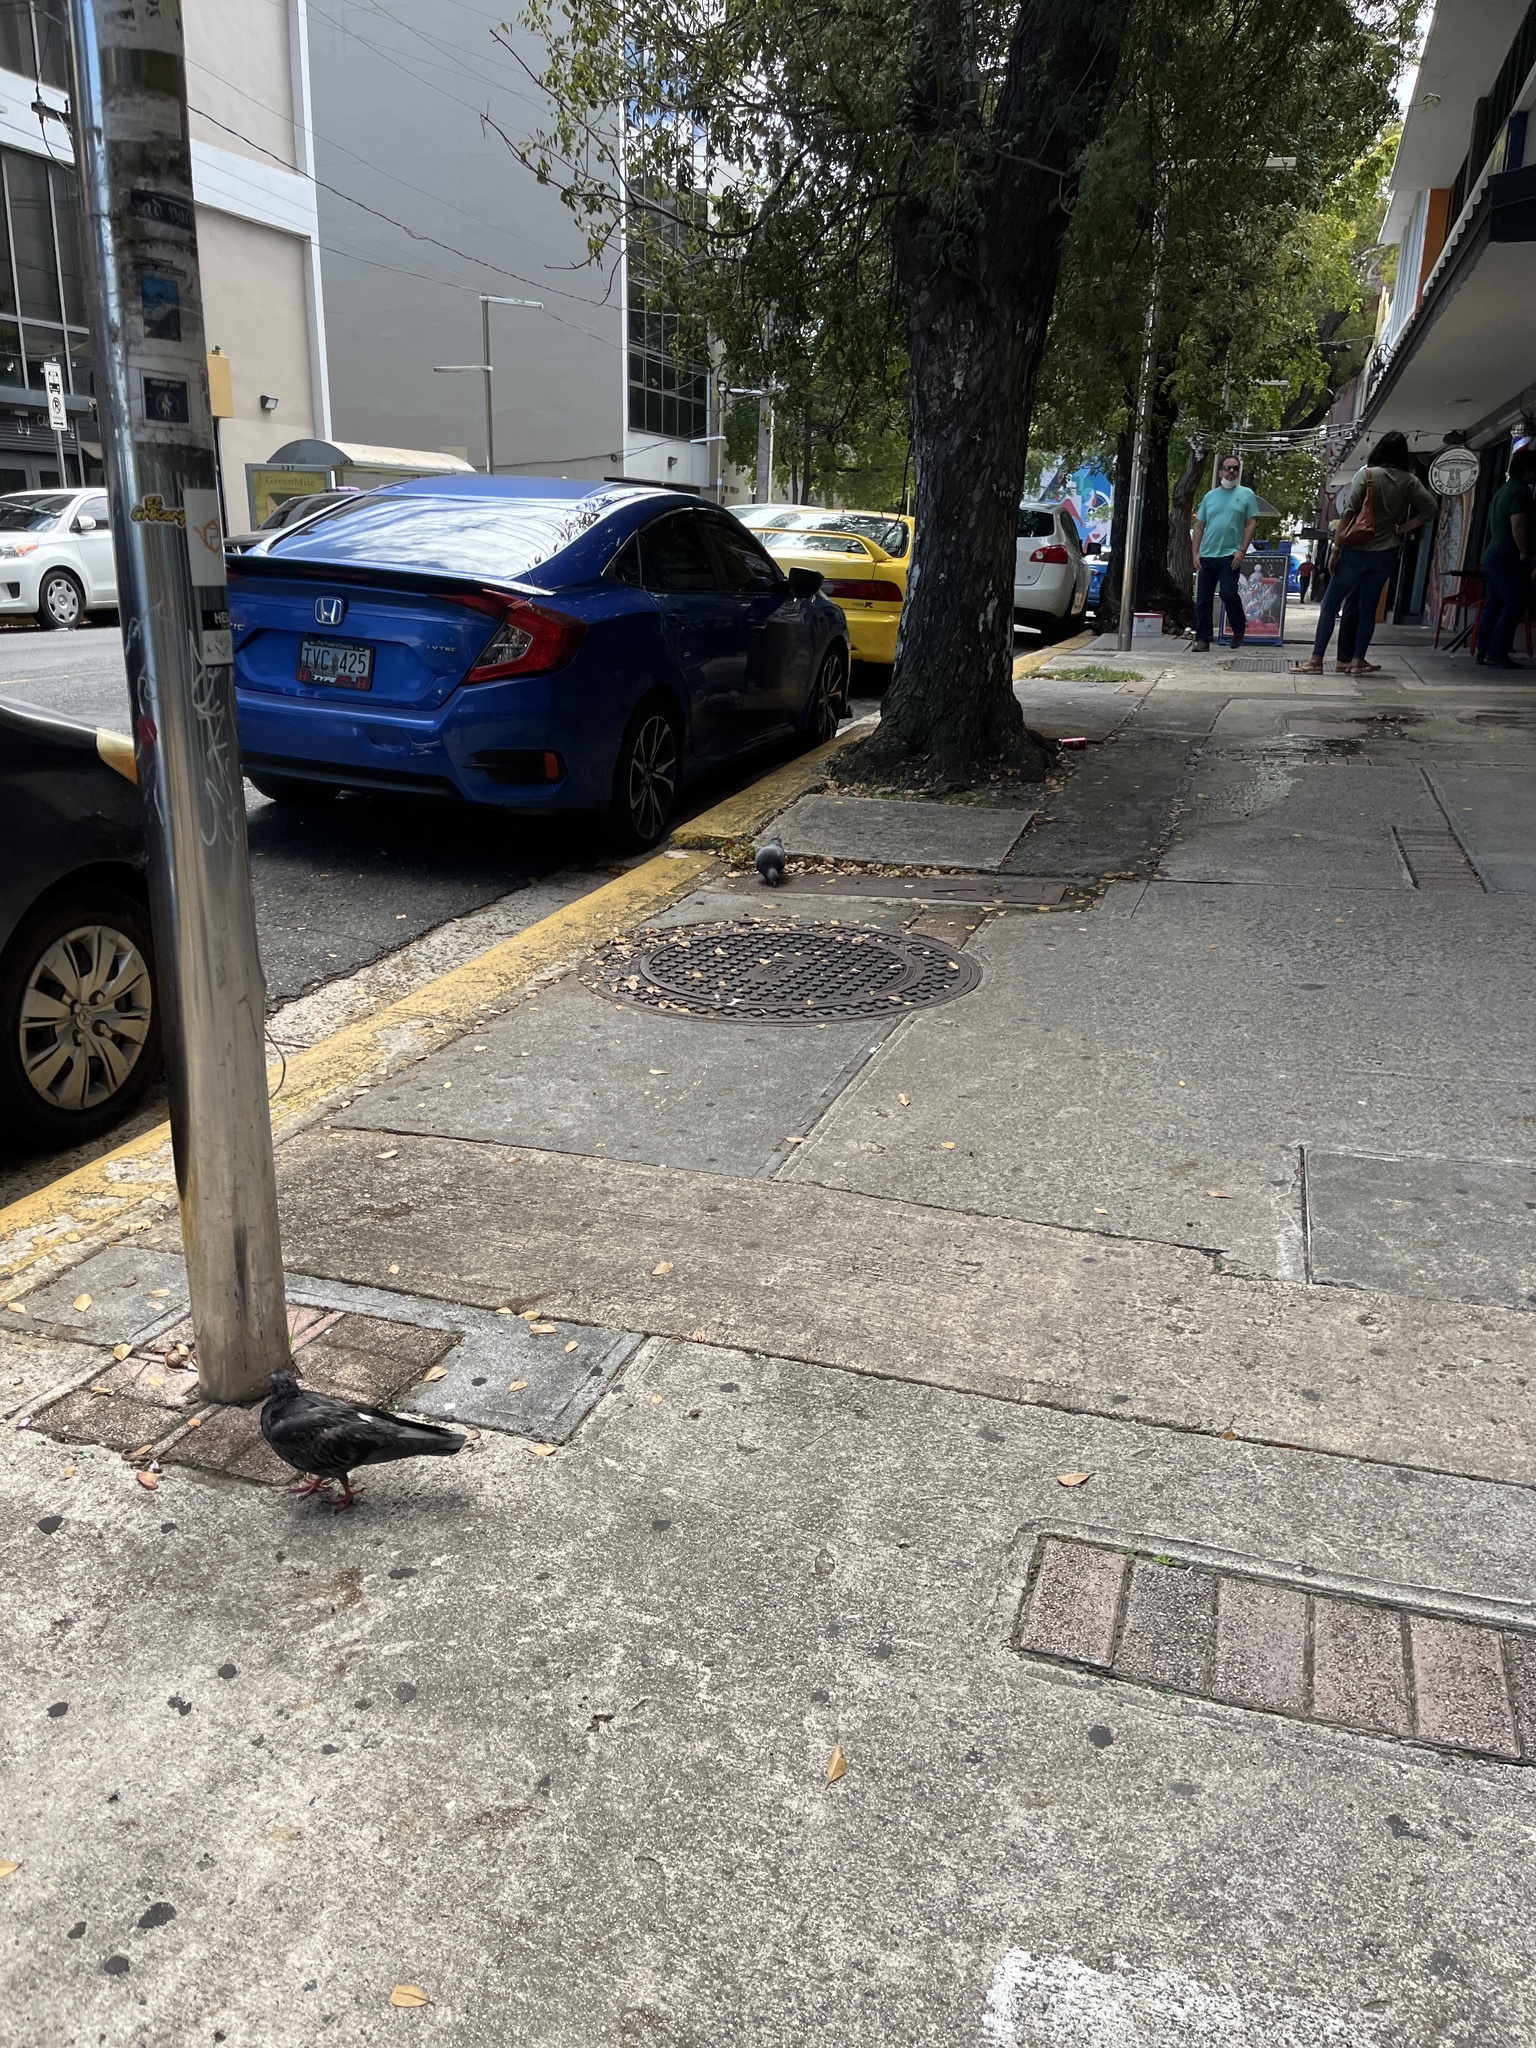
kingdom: Animalia
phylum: Chordata
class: Aves
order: Columbiformes
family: Columbidae
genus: Columba
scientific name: Columba livia
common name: Rock pigeon
